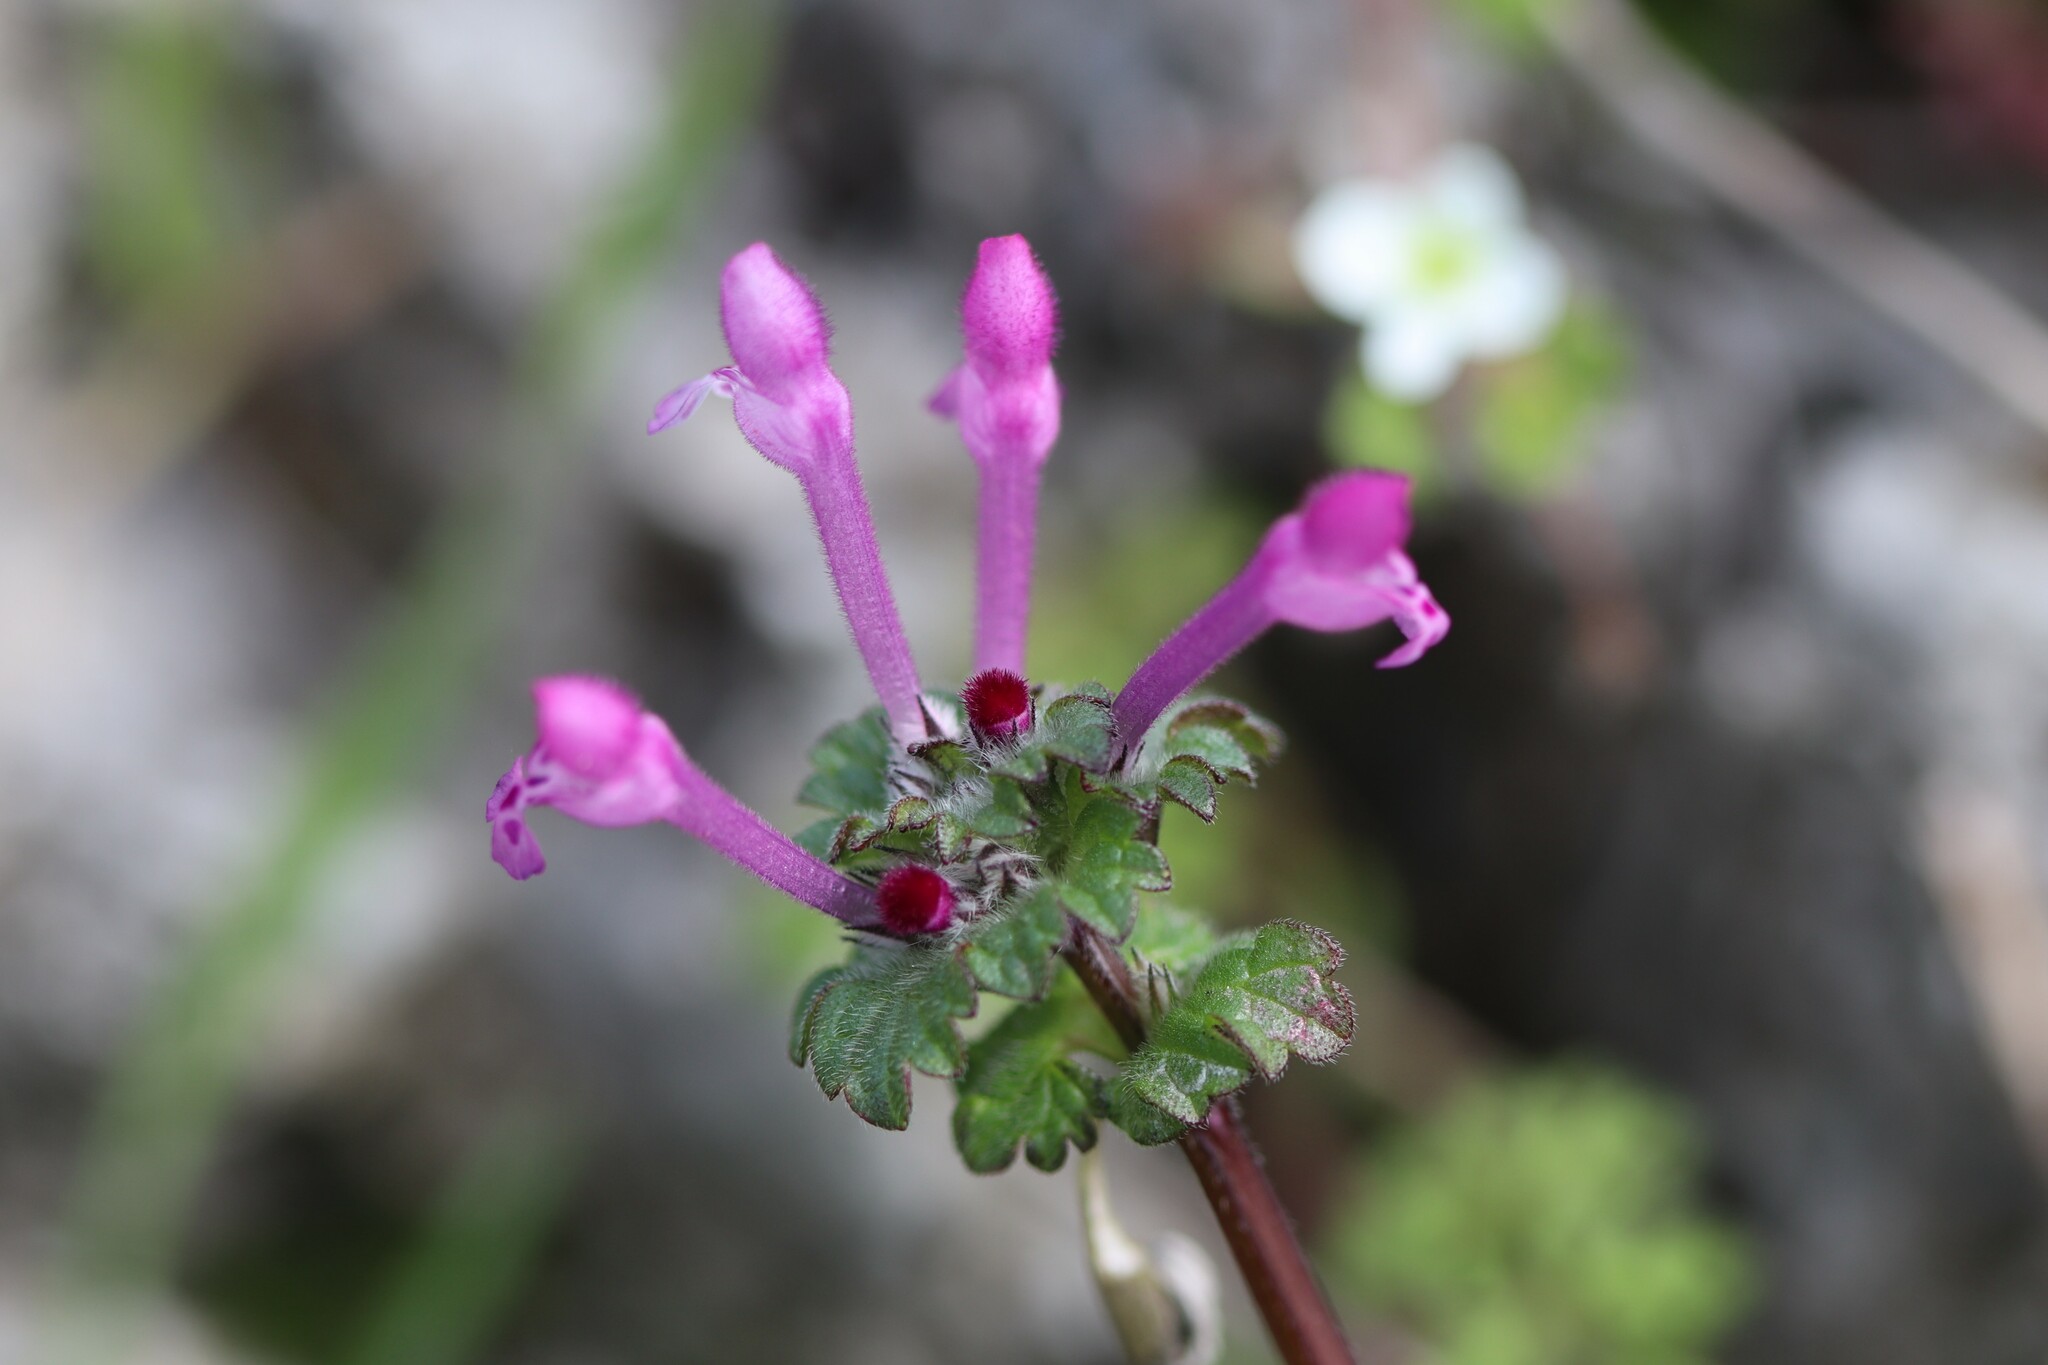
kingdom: Plantae
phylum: Tracheophyta
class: Magnoliopsida
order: Lamiales
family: Lamiaceae
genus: Lamium
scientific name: Lamium amplexicaule
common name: Henbit dead-nettle
